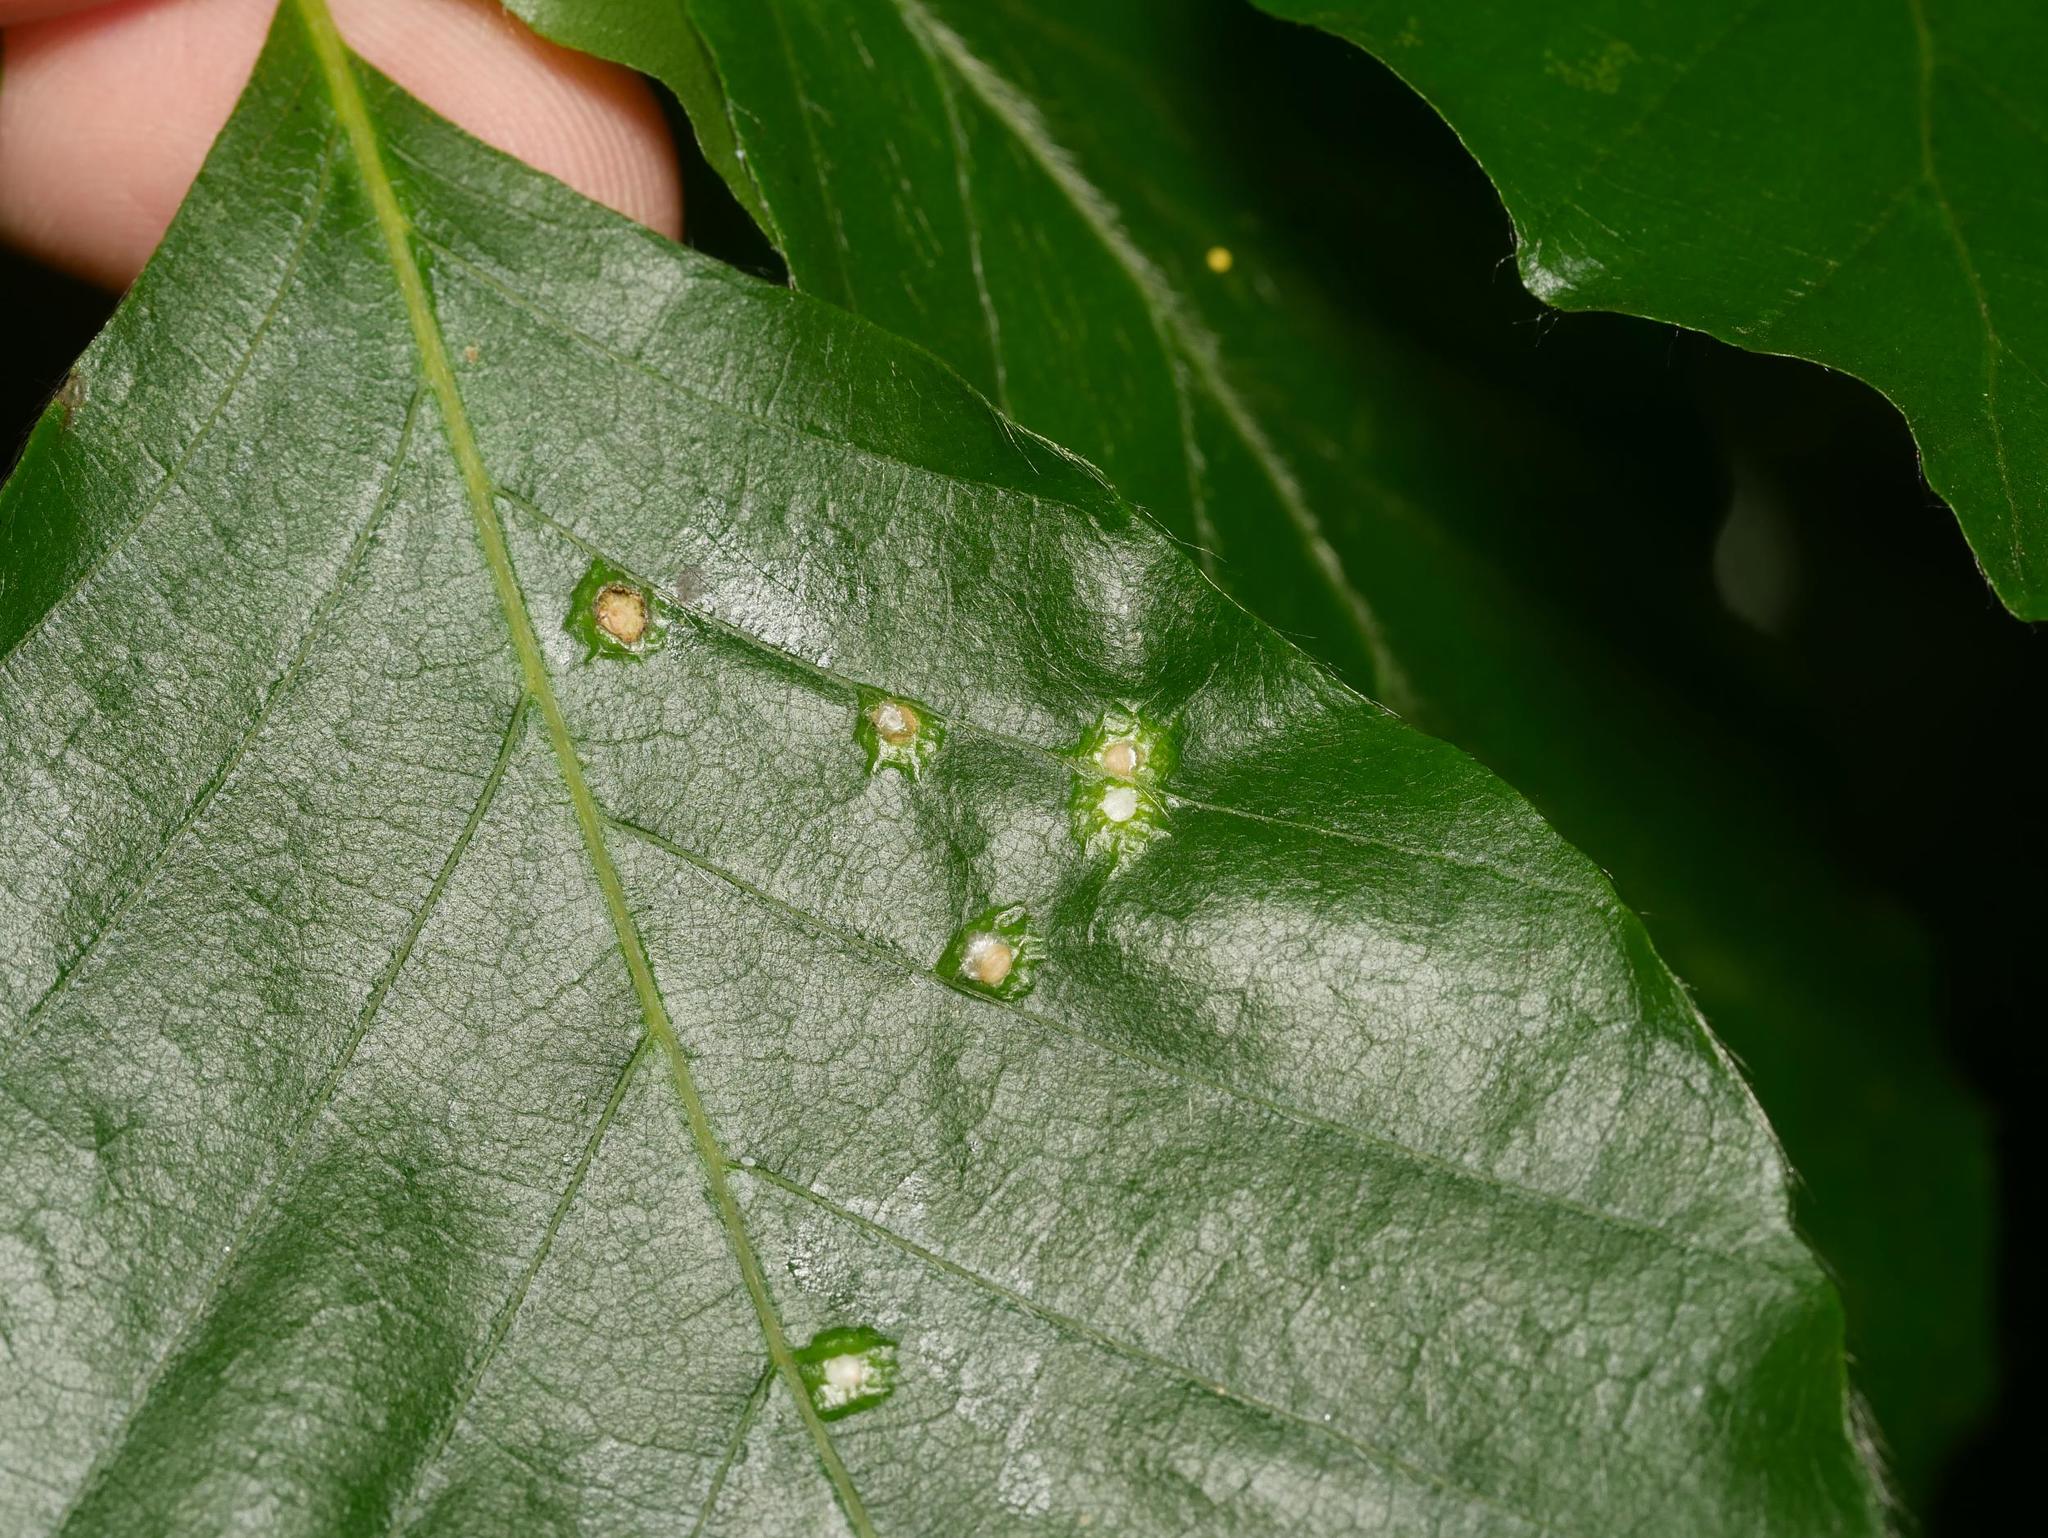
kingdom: Animalia
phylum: Arthropoda
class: Insecta
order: Diptera
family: Cecidomyiidae
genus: Hartigiola
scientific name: Hartigiola annulipes
